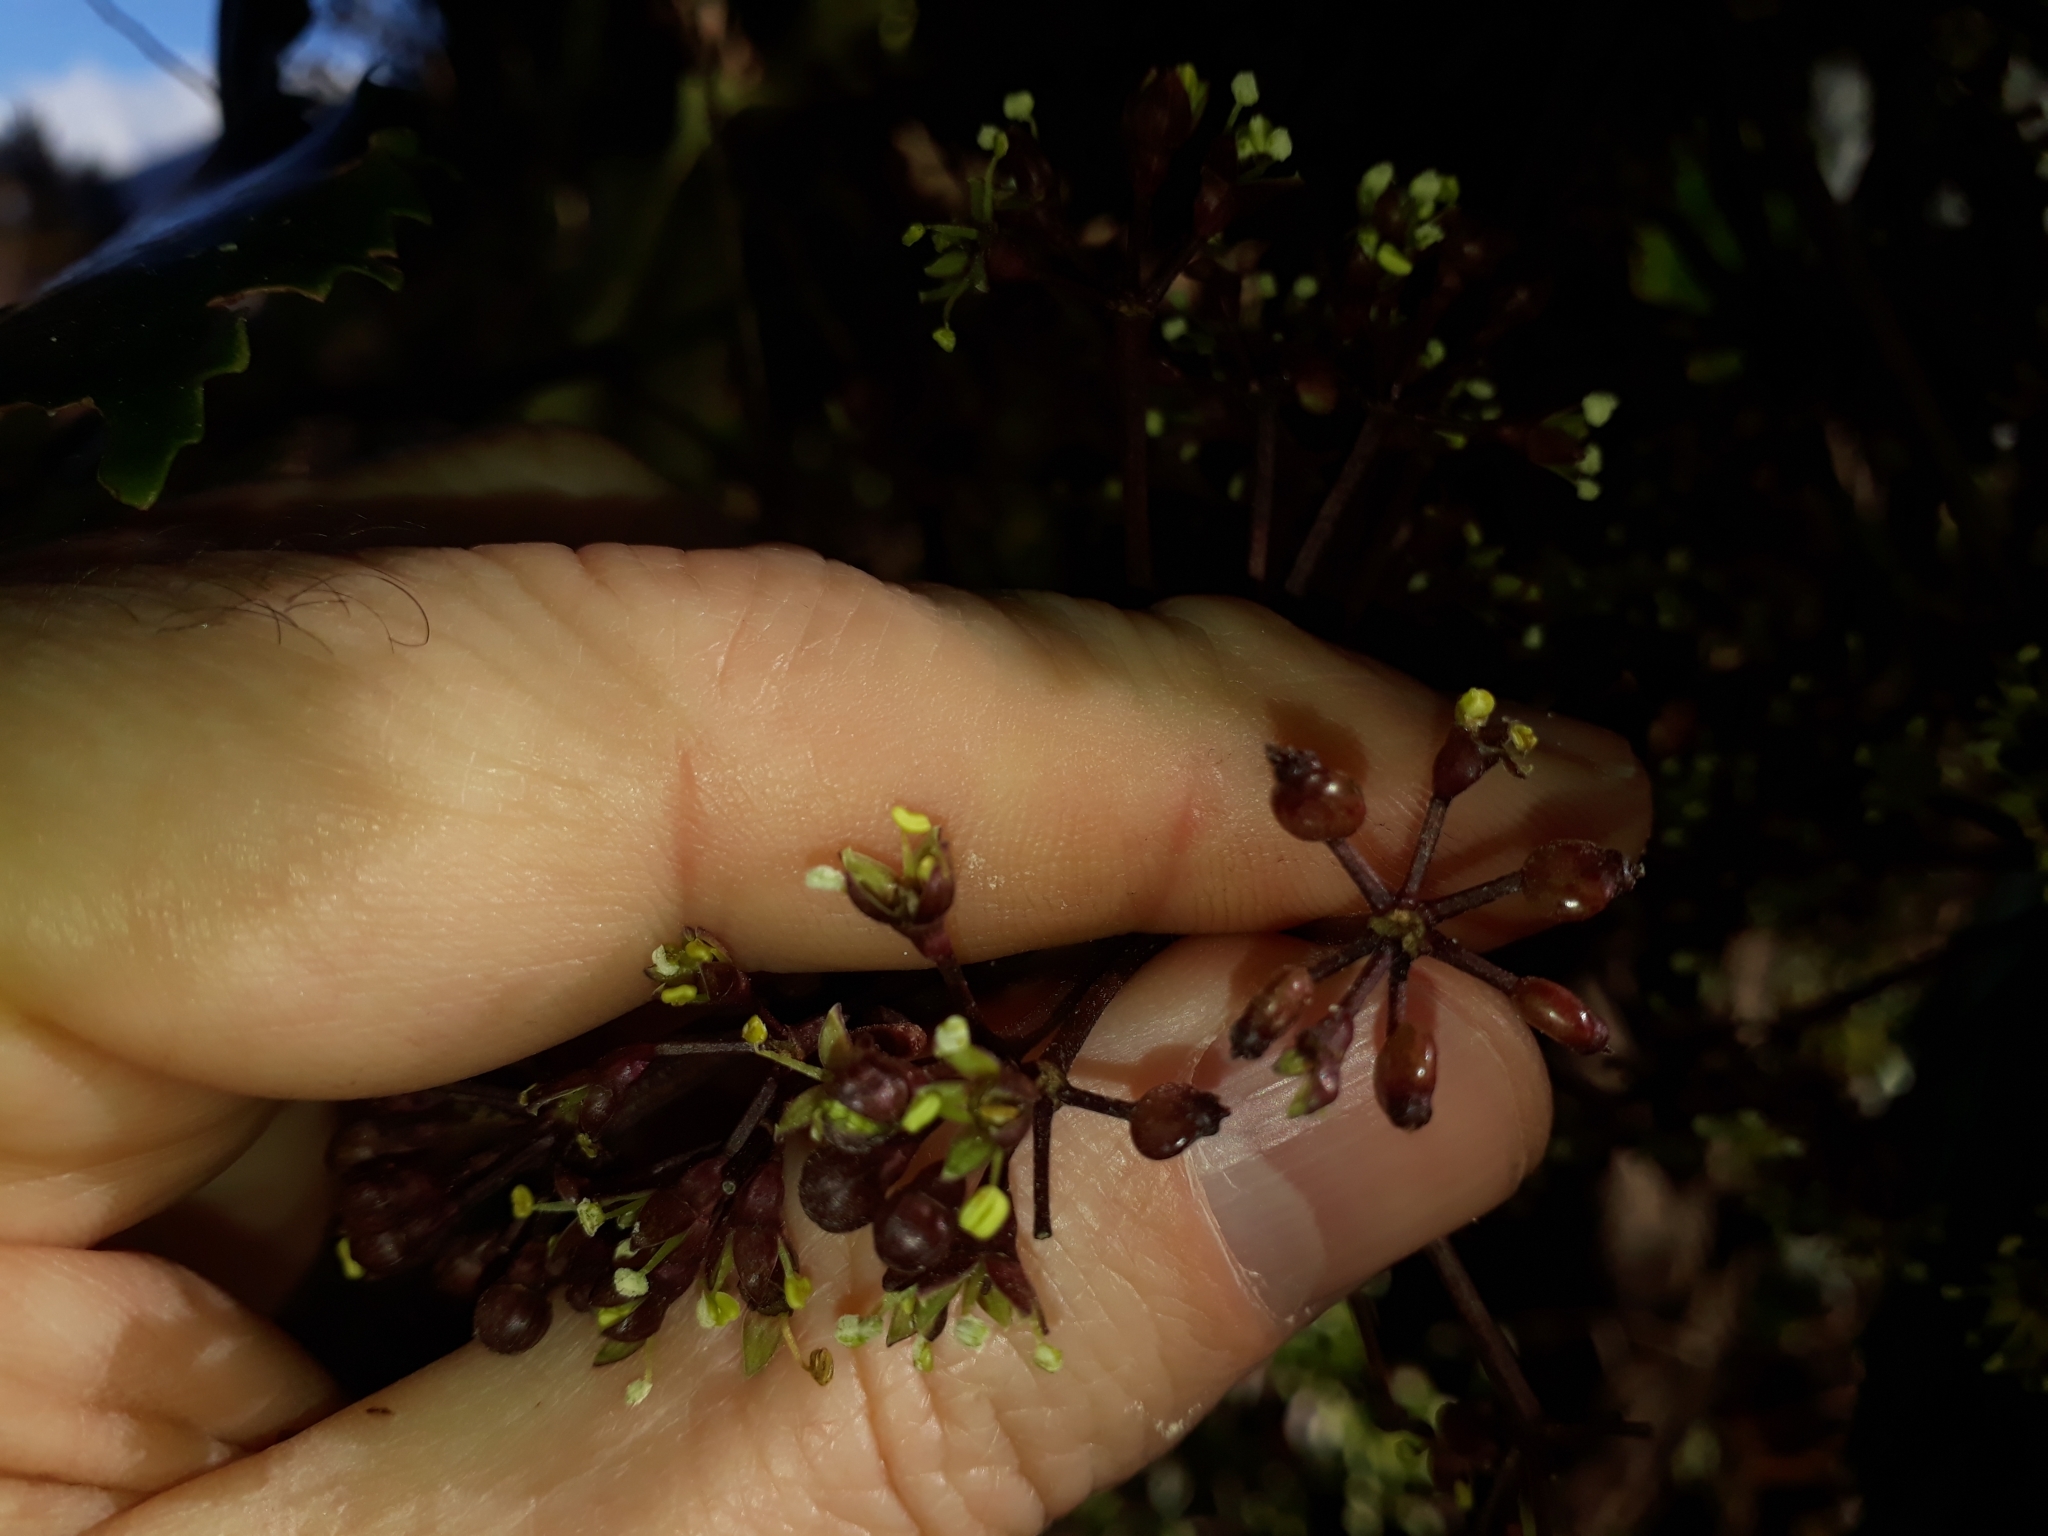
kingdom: Plantae
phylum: Tracheophyta
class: Magnoliopsida
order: Apiales
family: Araliaceae
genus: Neopanax
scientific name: Neopanax arboreus
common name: Five-fingers
